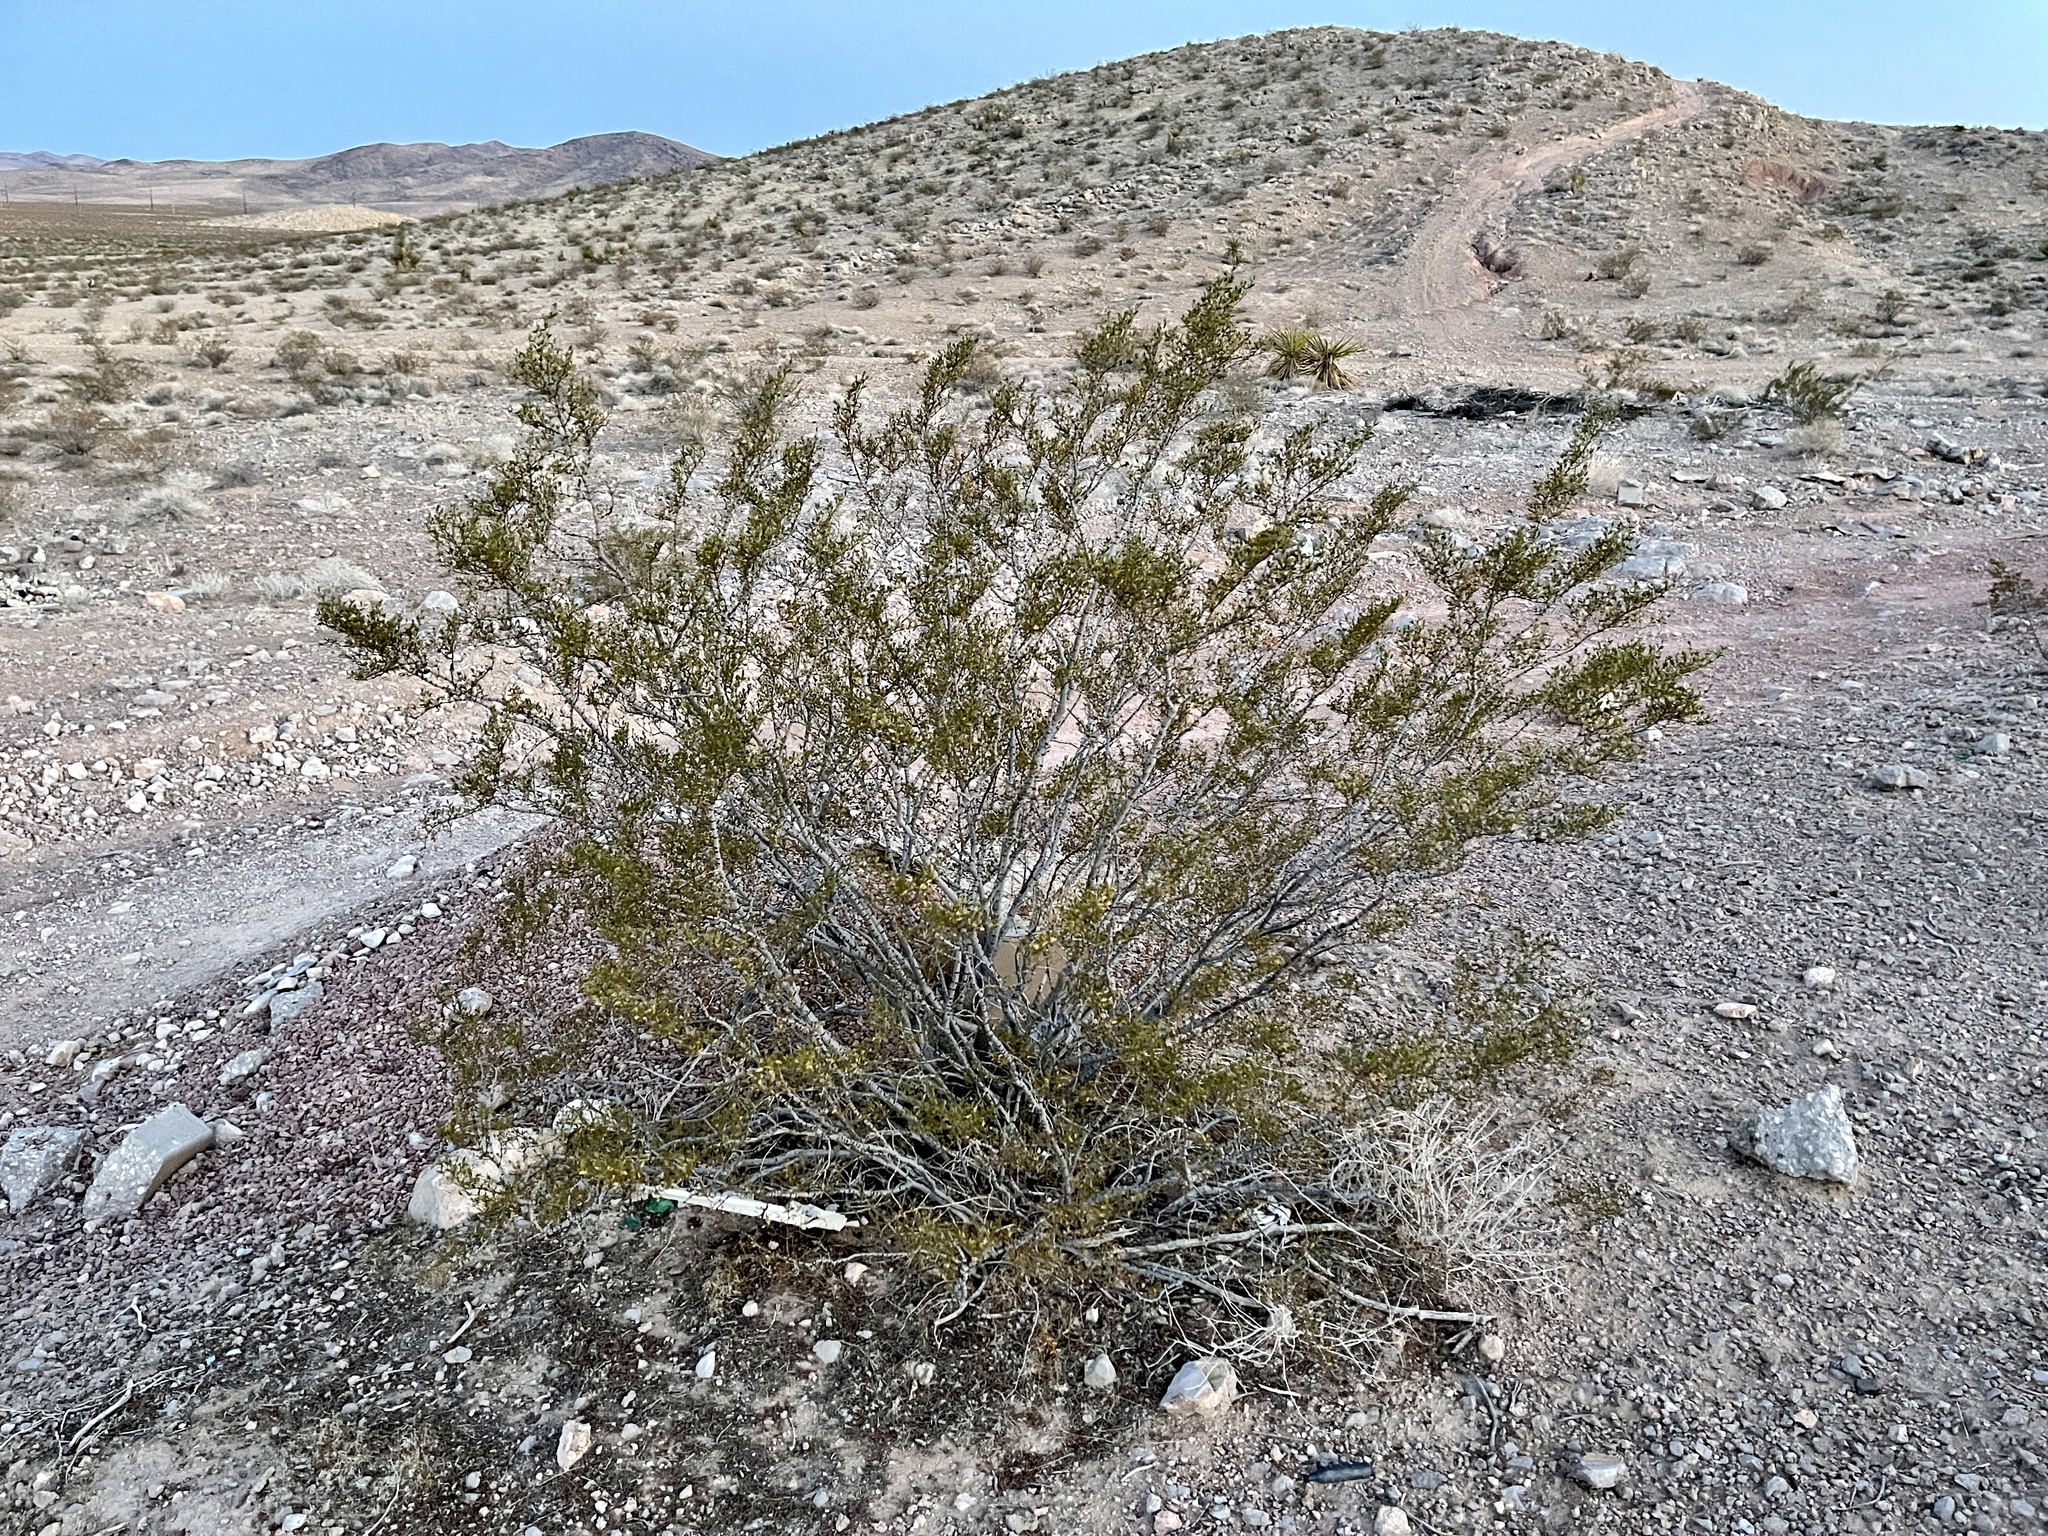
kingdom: Plantae
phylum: Tracheophyta
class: Magnoliopsida
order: Zygophyllales
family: Zygophyllaceae
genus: Larrea
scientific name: Larrea tridentata
